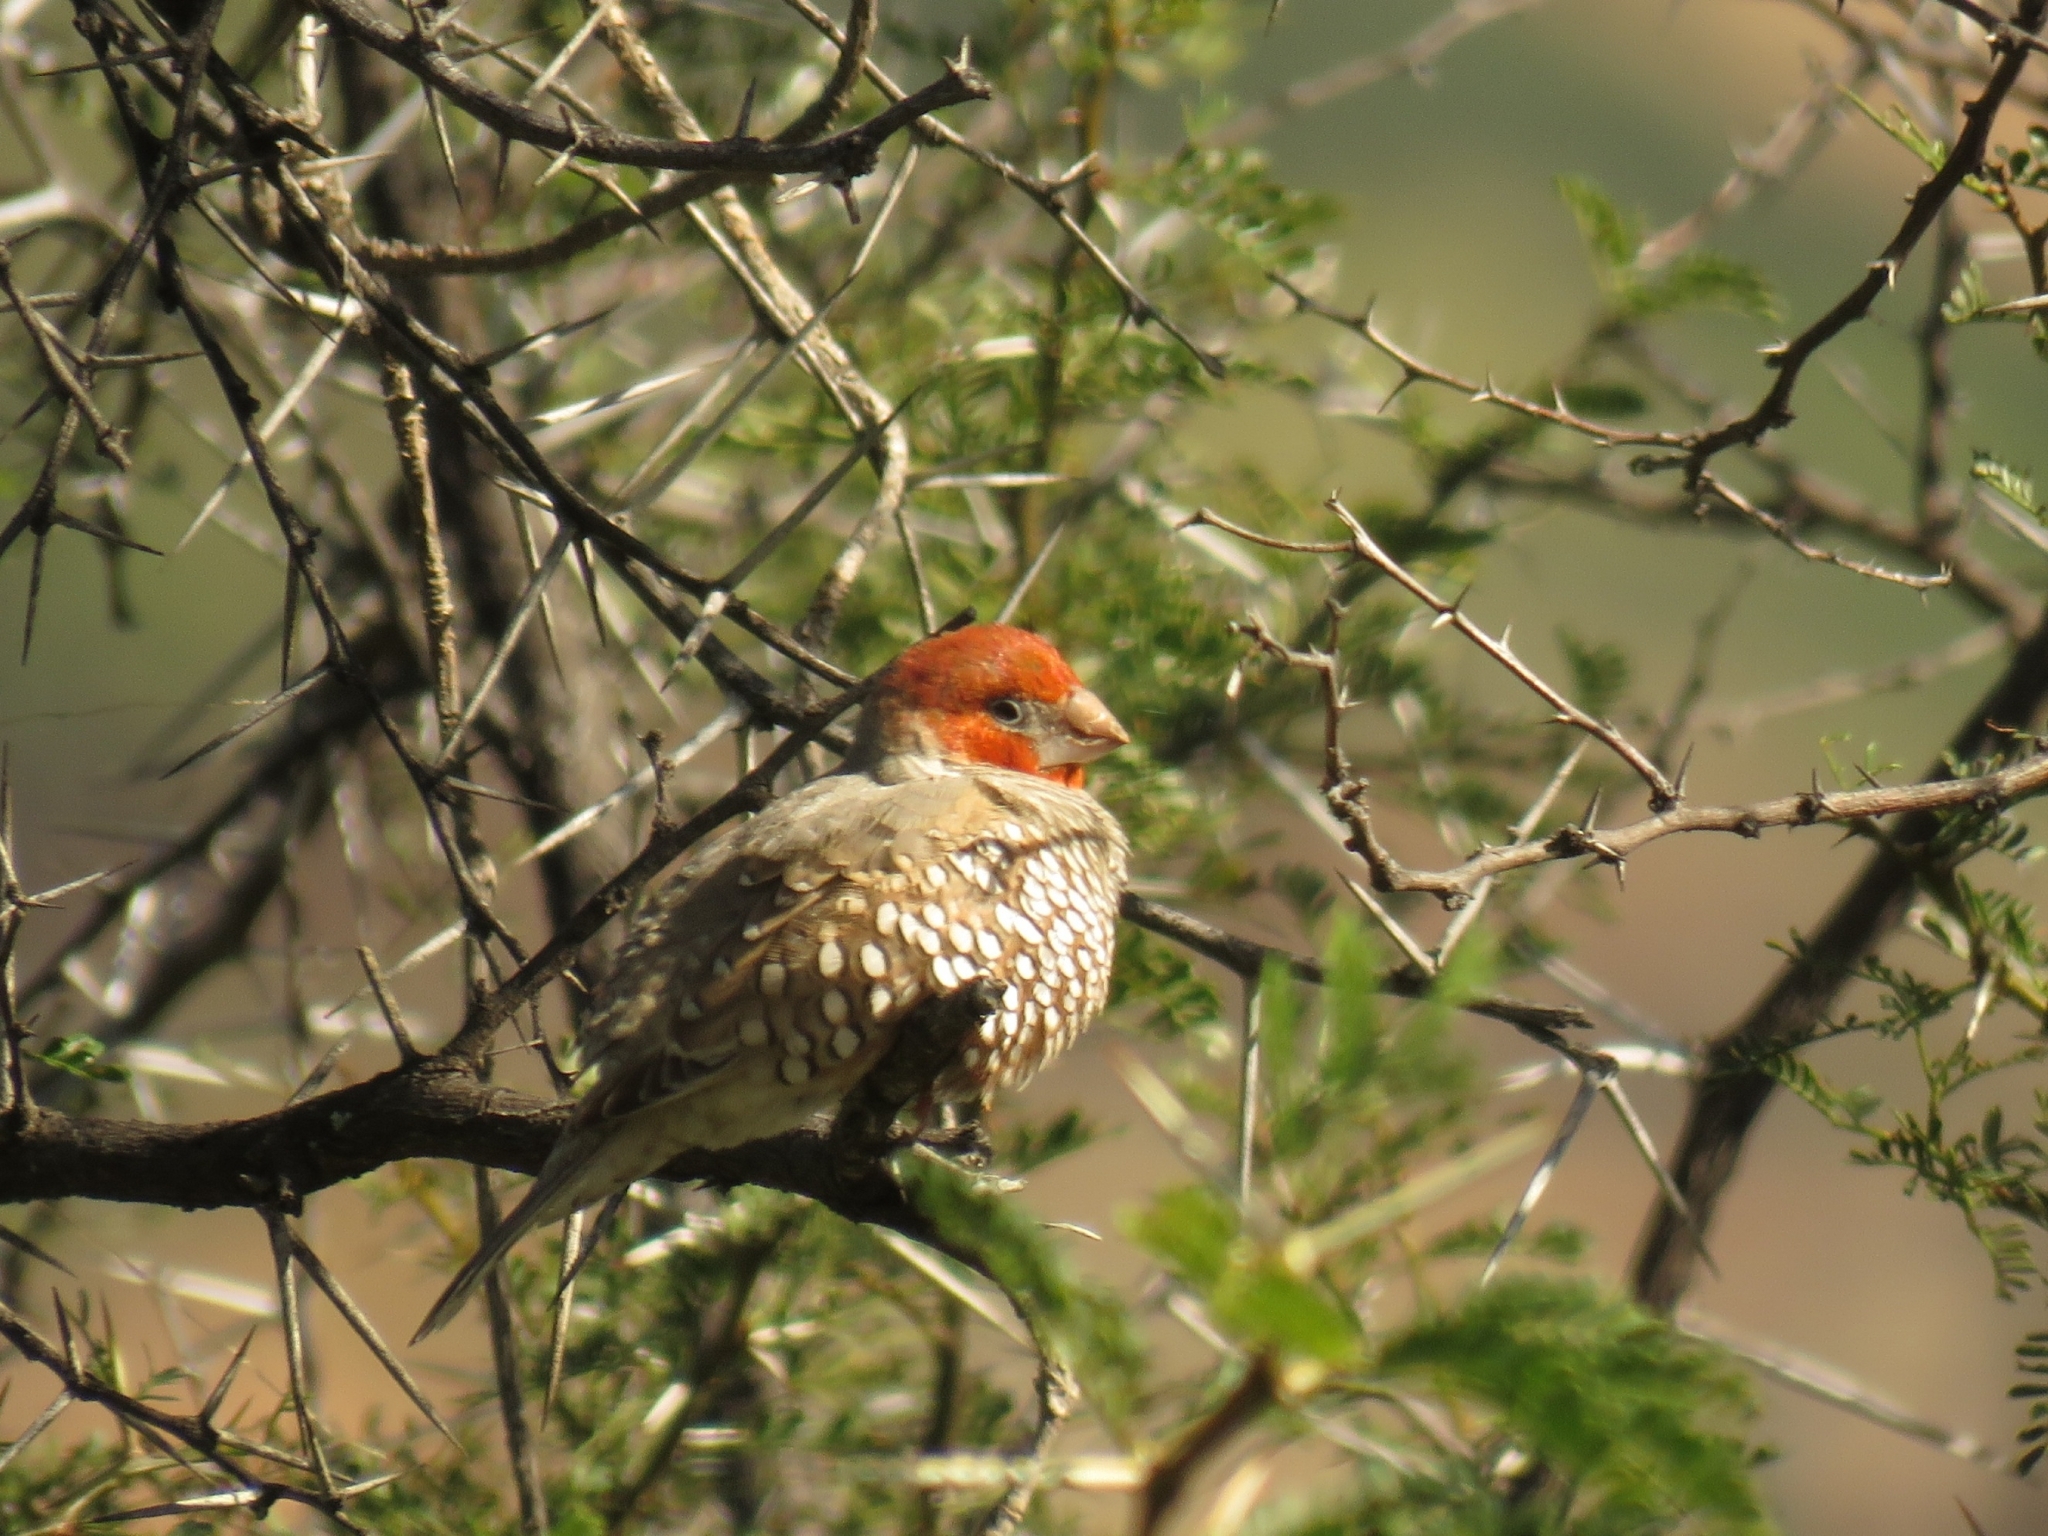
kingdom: Animalia
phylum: Chordata
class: Aves
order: Passeriformes
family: Estrildidae
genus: Amadina
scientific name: Amadina erythrocephala
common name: Red-headed finch
